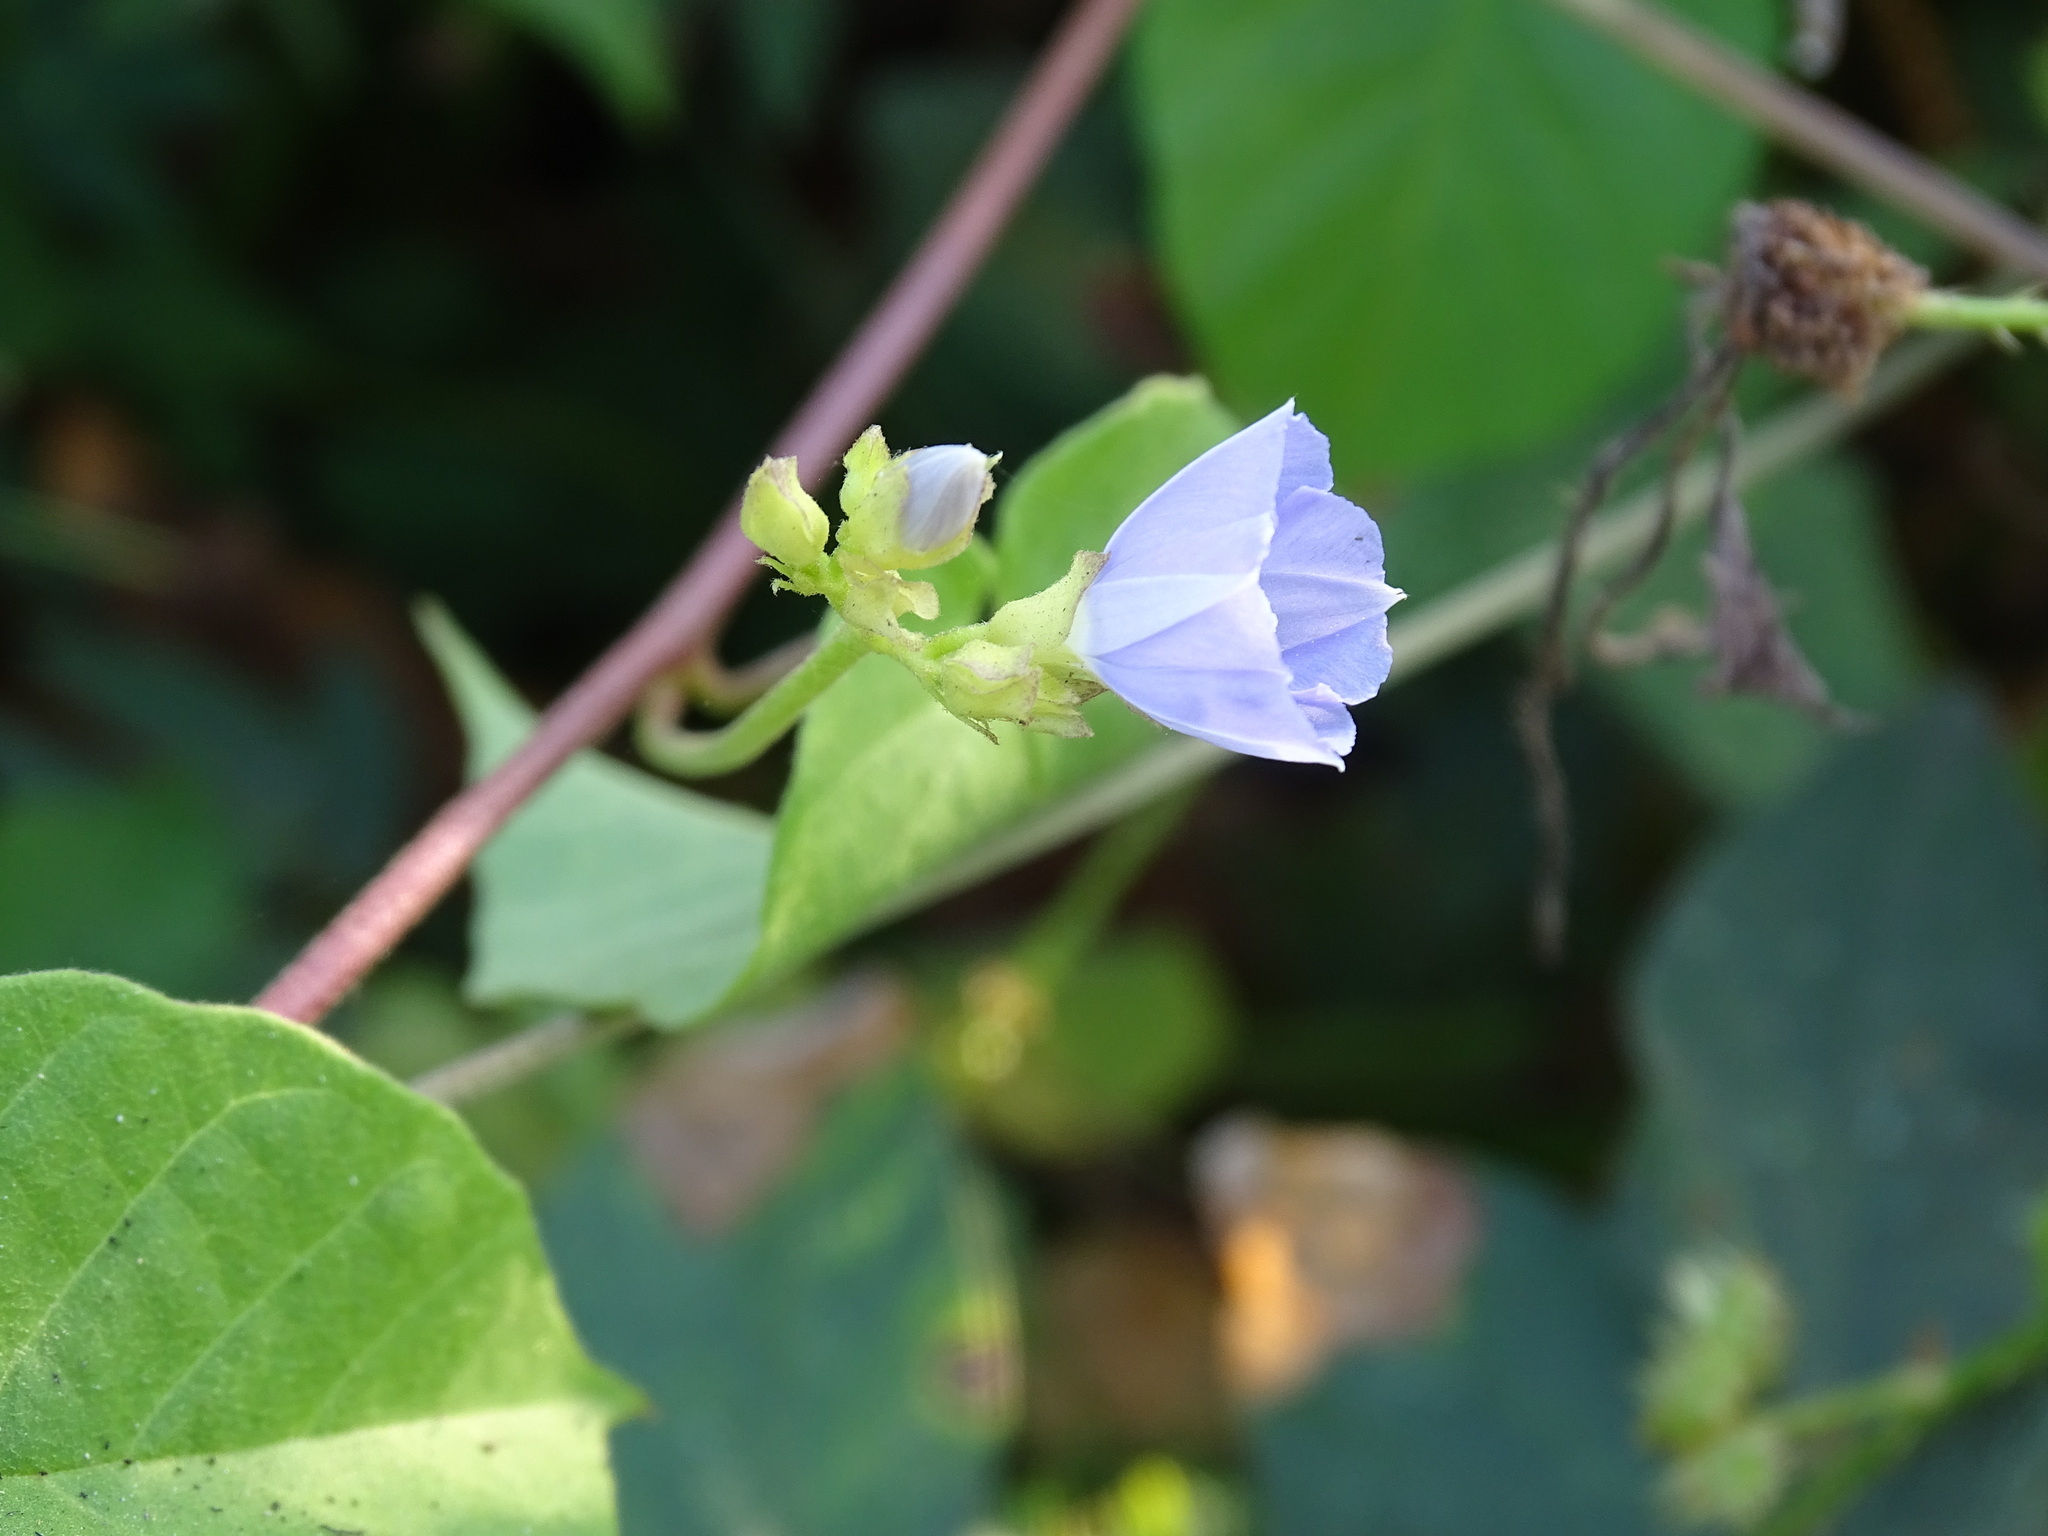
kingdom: Plantae
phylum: Tracheophyta
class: Magnoliopsida
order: Solanales
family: Convolvulaceae
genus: Jacquemontia
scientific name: Jacquemontia oaxacana
